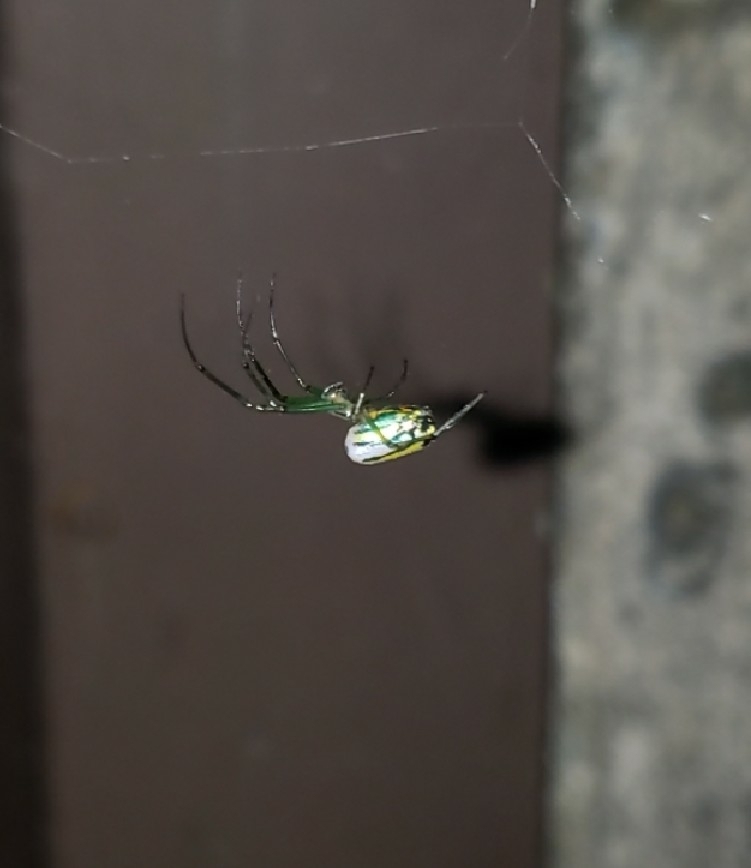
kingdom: Animalia
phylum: Arthropoda
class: Arachnida
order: Araneae
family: Tetragnathidae
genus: Leucauge
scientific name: Leucauge venusta
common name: Longjawed orb weavers
